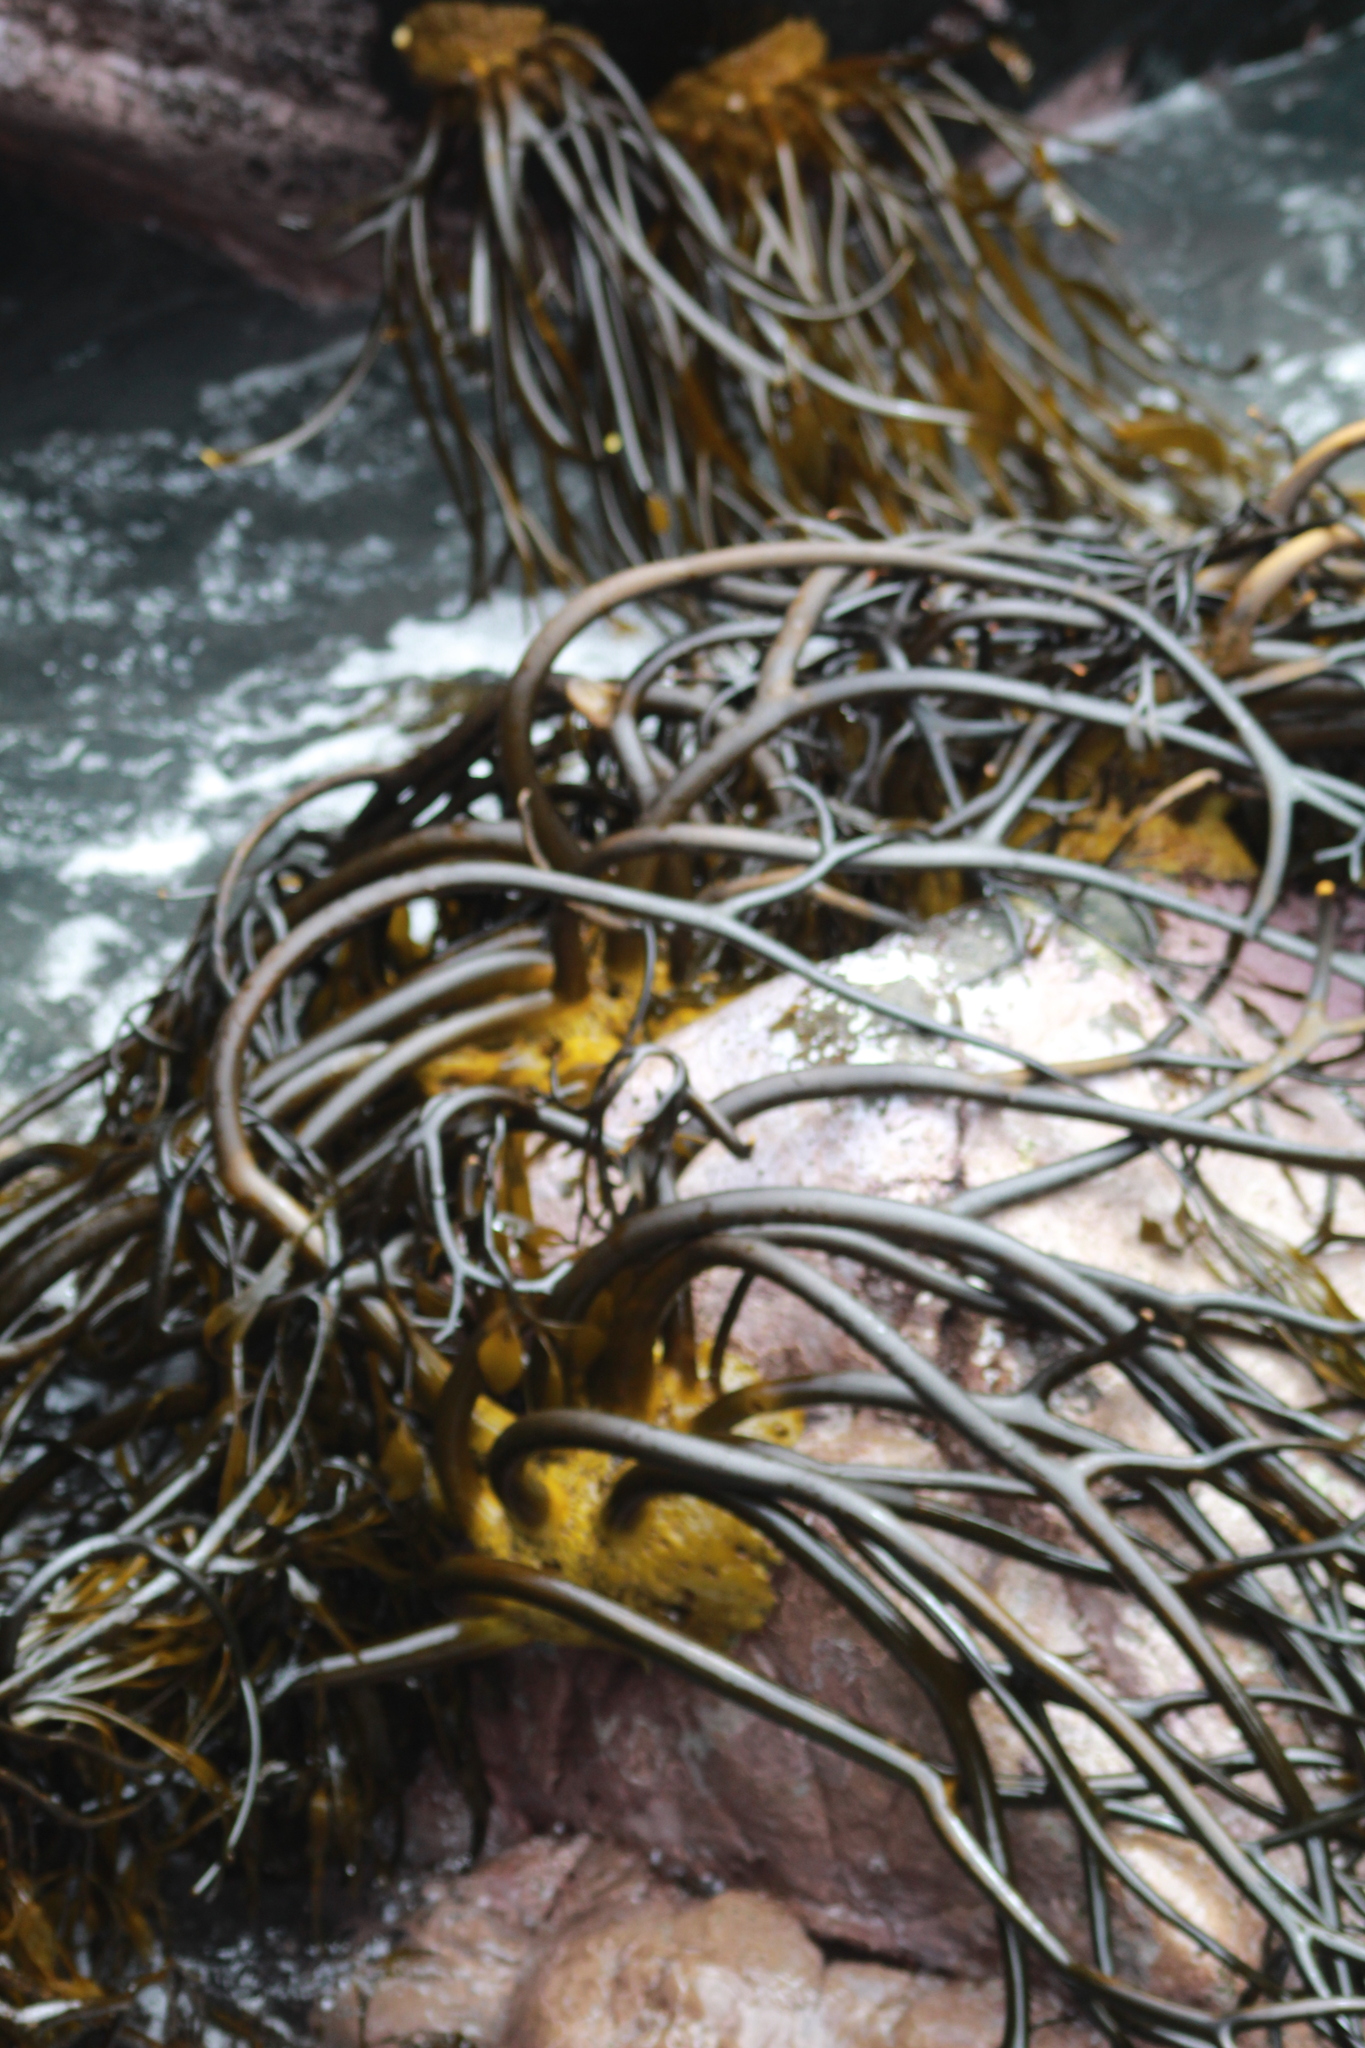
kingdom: Chromista
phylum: Ochrophyta
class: Phaeophyceae
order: Laminariales
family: Lessoniaceae
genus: Lessonia
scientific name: Lessonia
